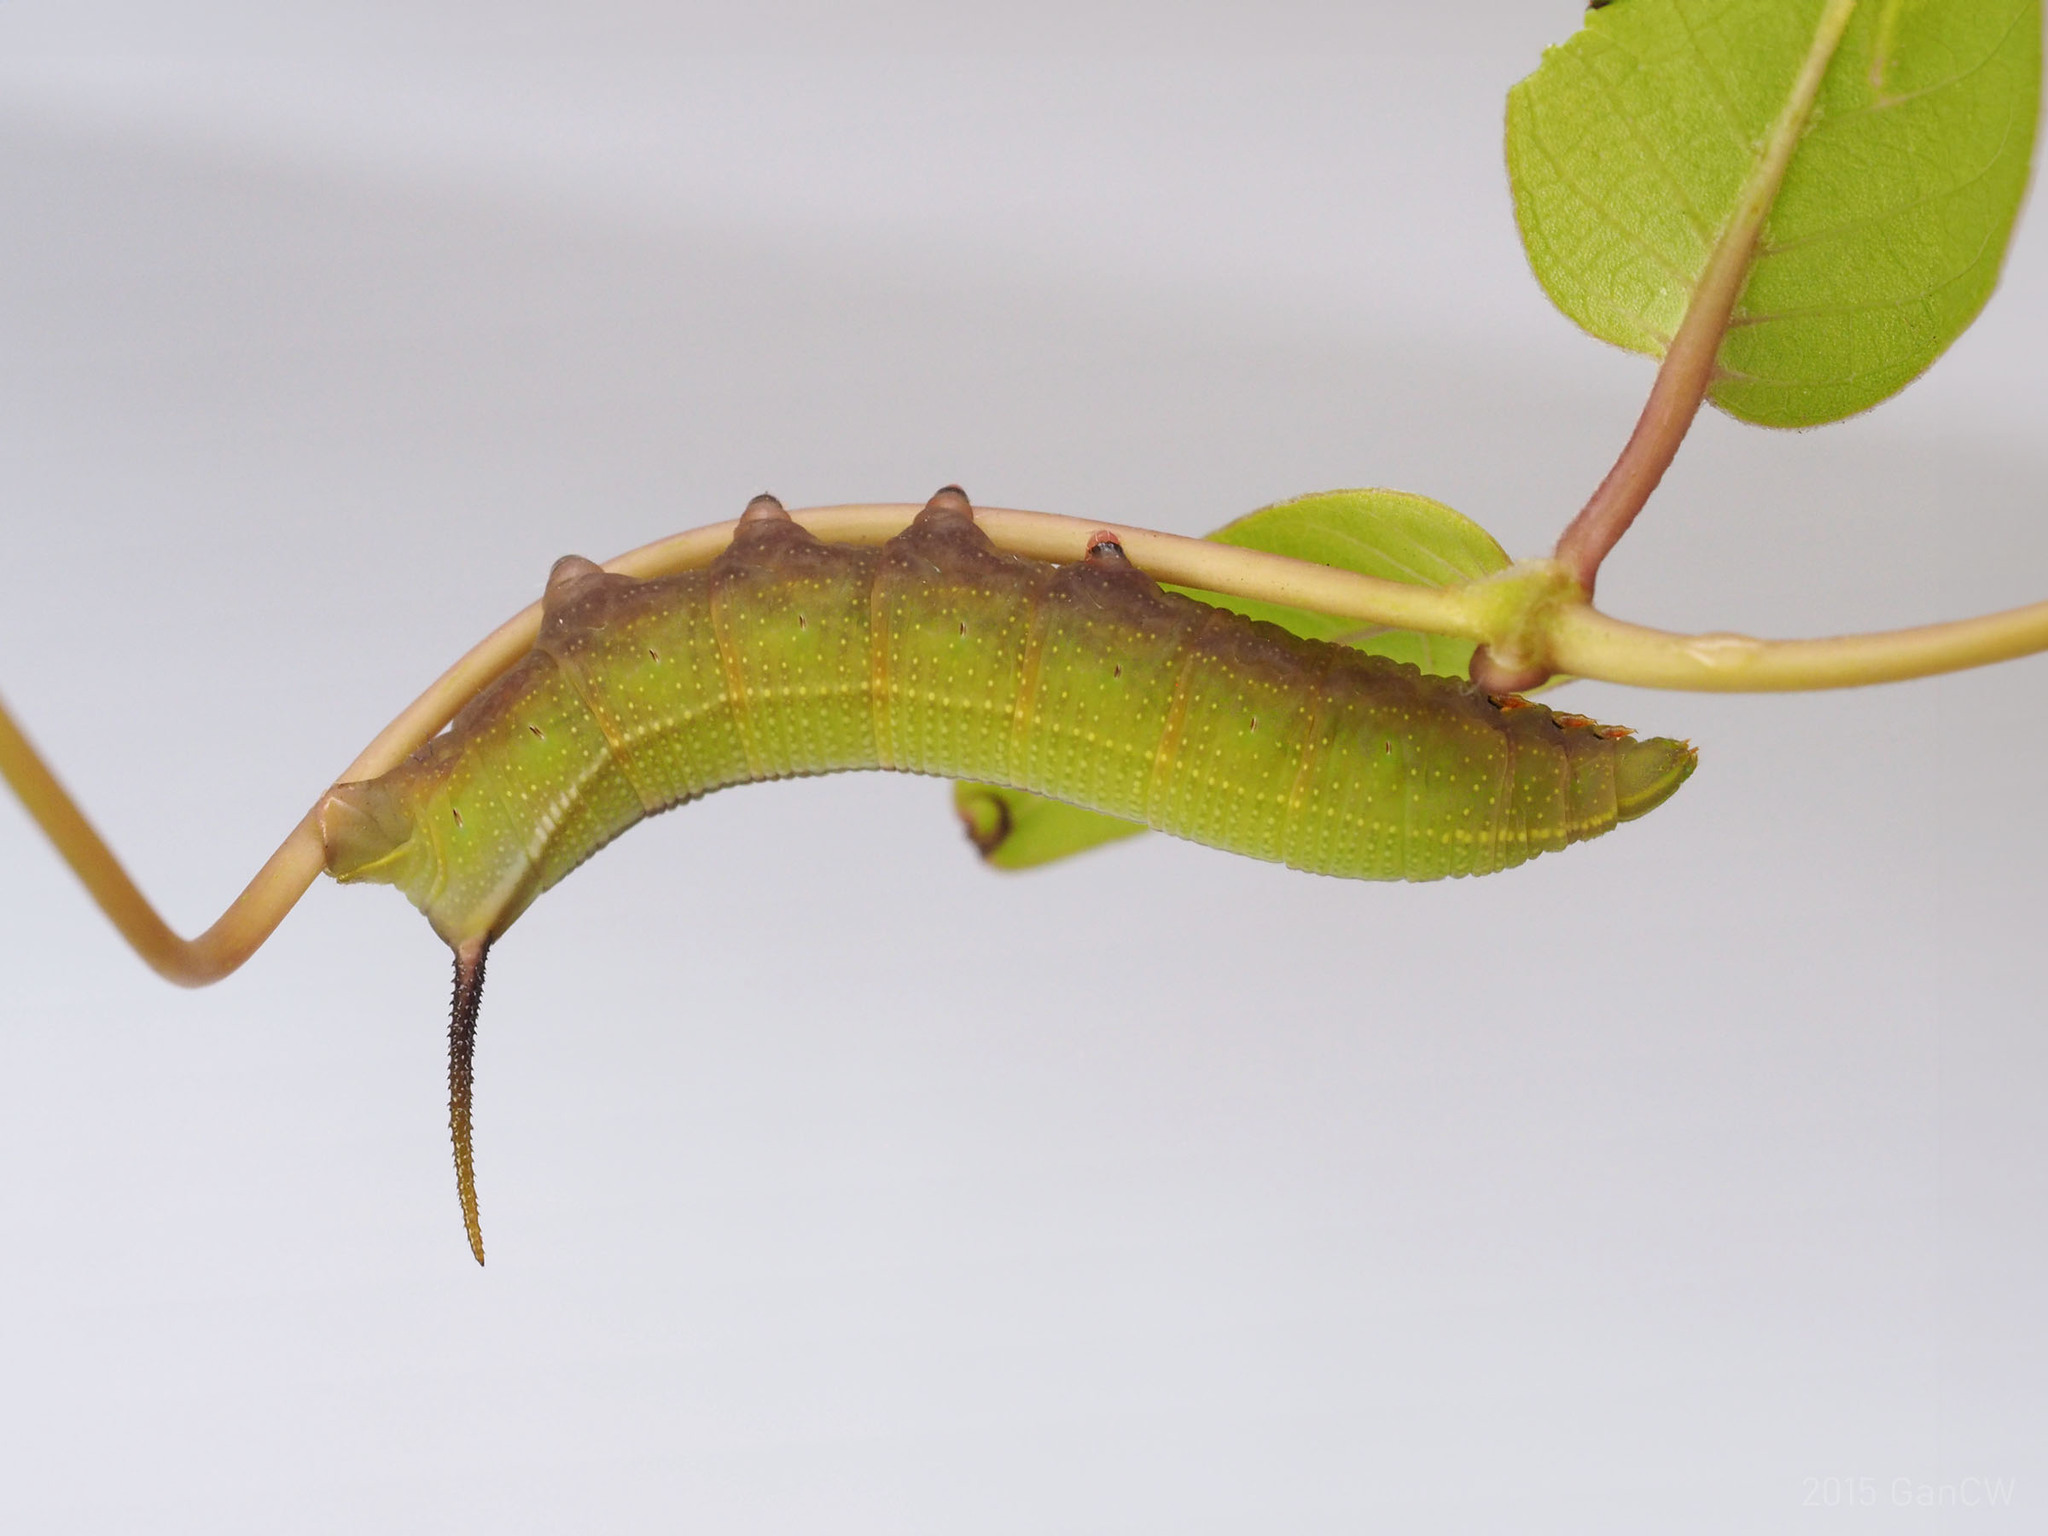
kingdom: Animalia
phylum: Arthropoda
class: Insecta
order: Lepidoptera
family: Sphingidae
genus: Macroglossum
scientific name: Macroglossum sitiene
